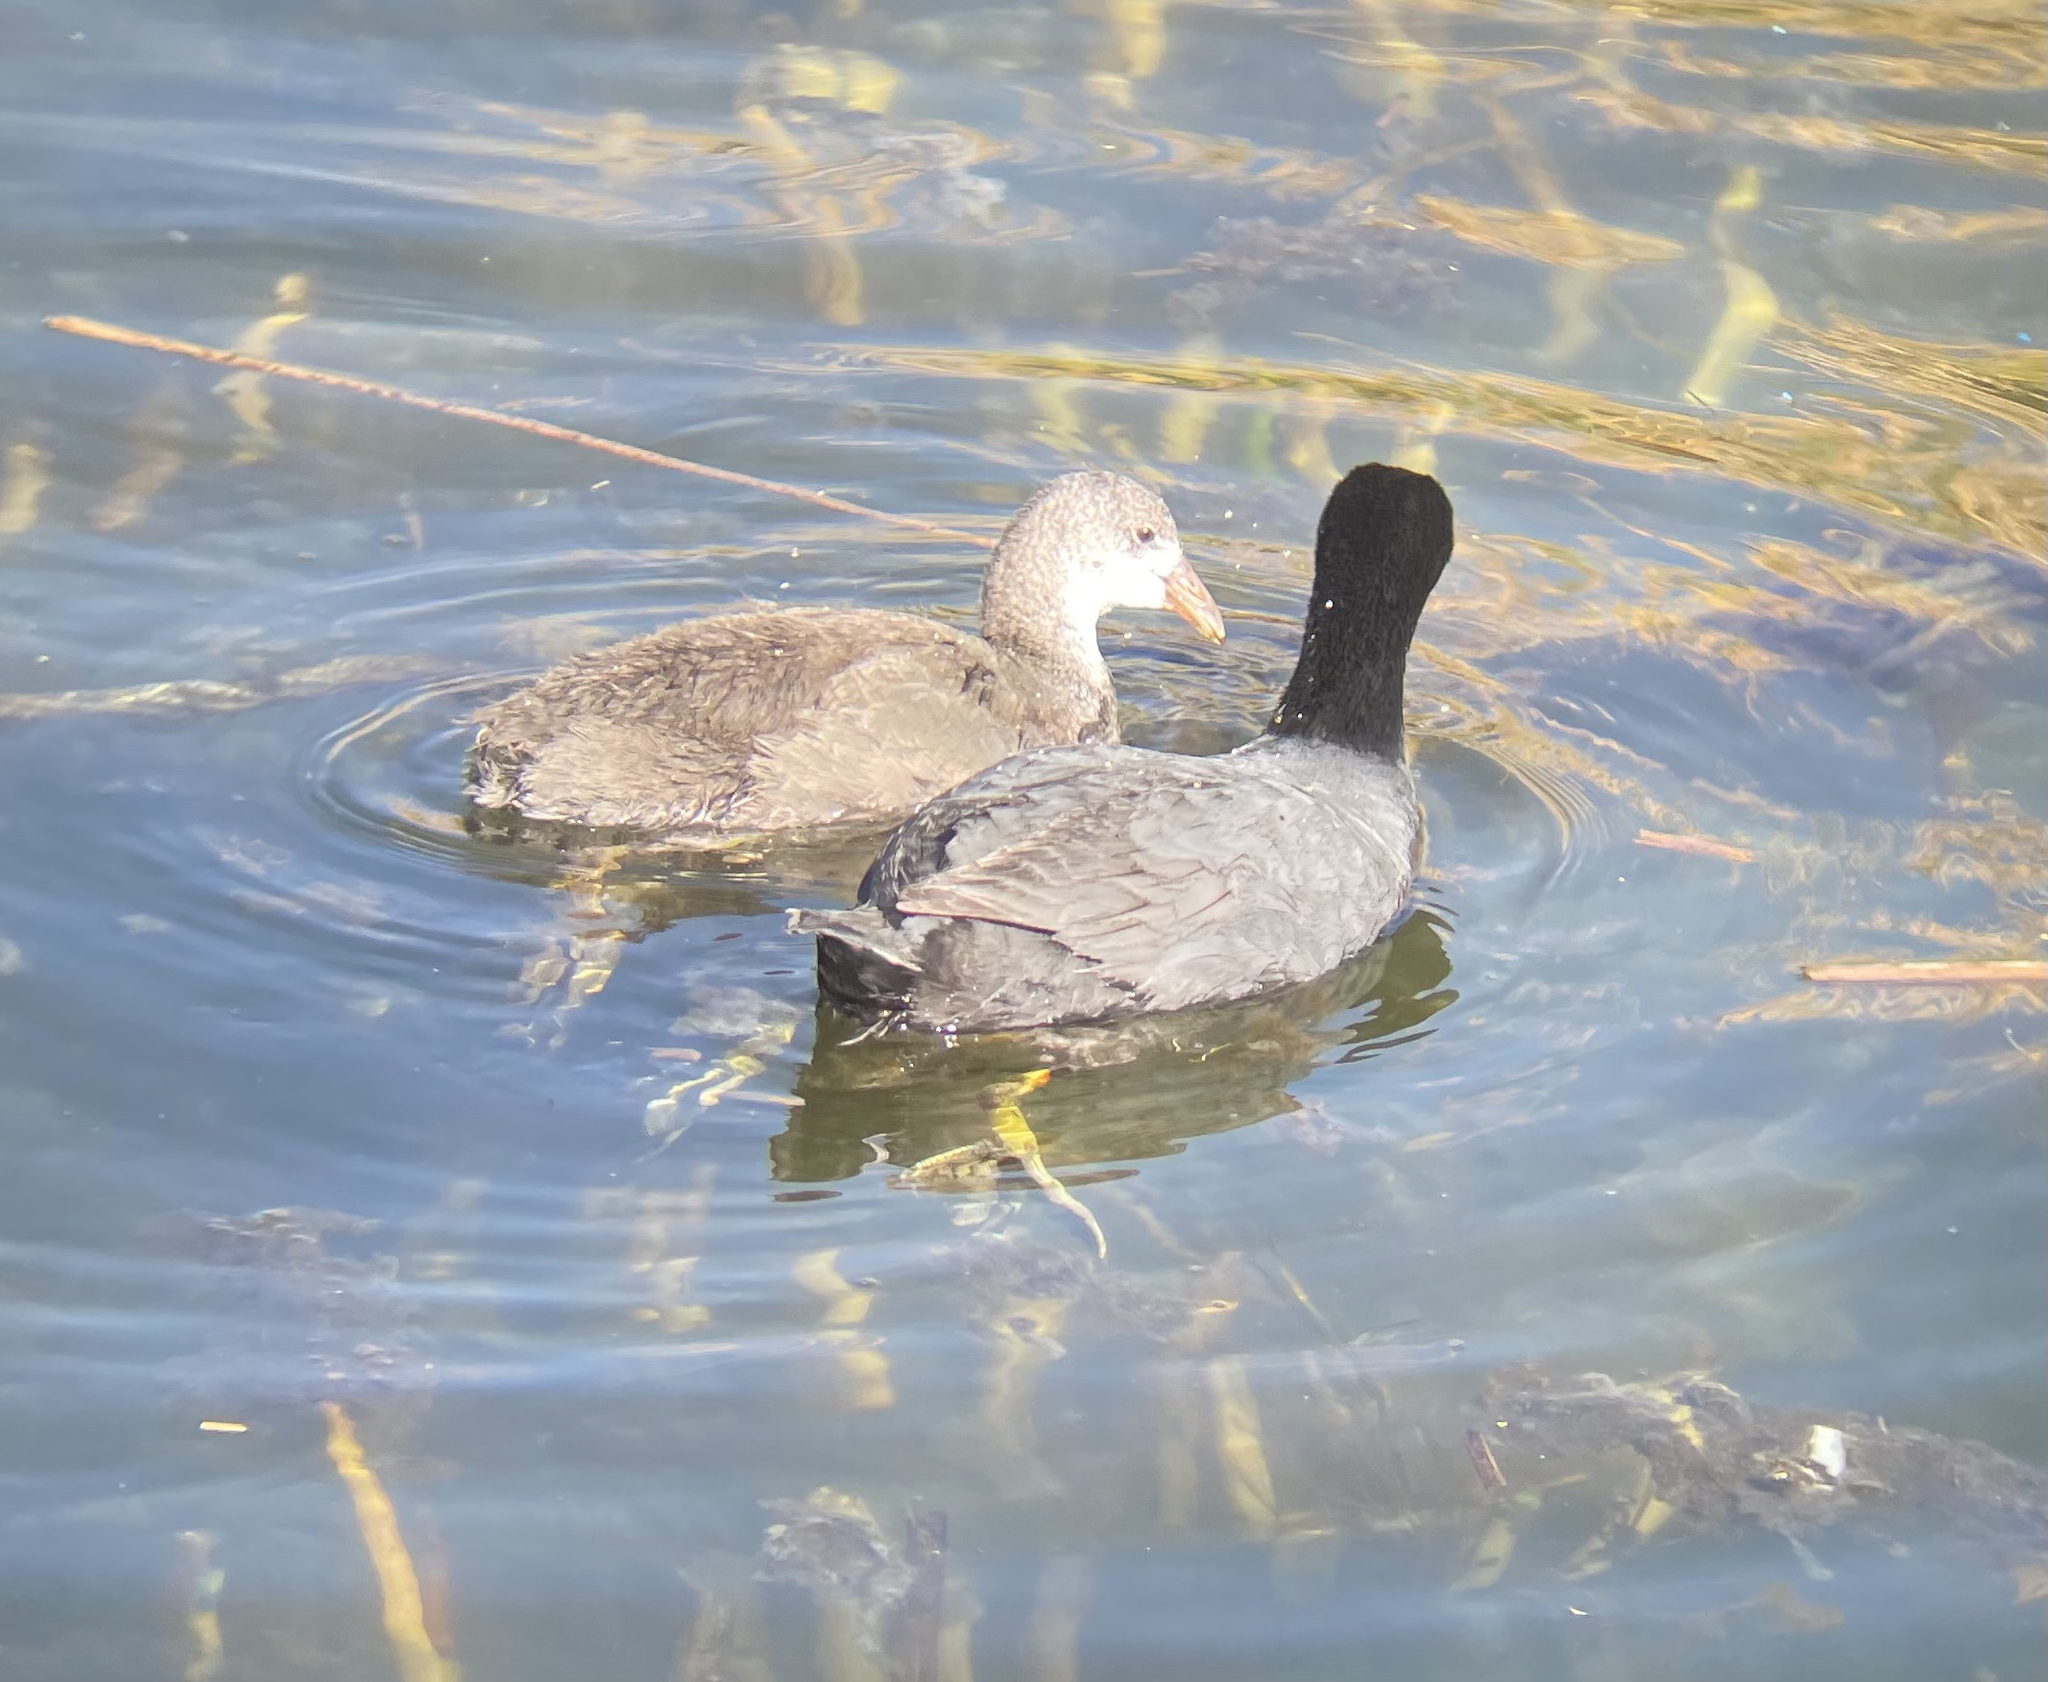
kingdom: Animalia
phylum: Chordata
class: Aves
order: Gruiformes
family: Rallidae
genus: Fulica
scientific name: Fulica ardesiaca
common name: Andean coot
